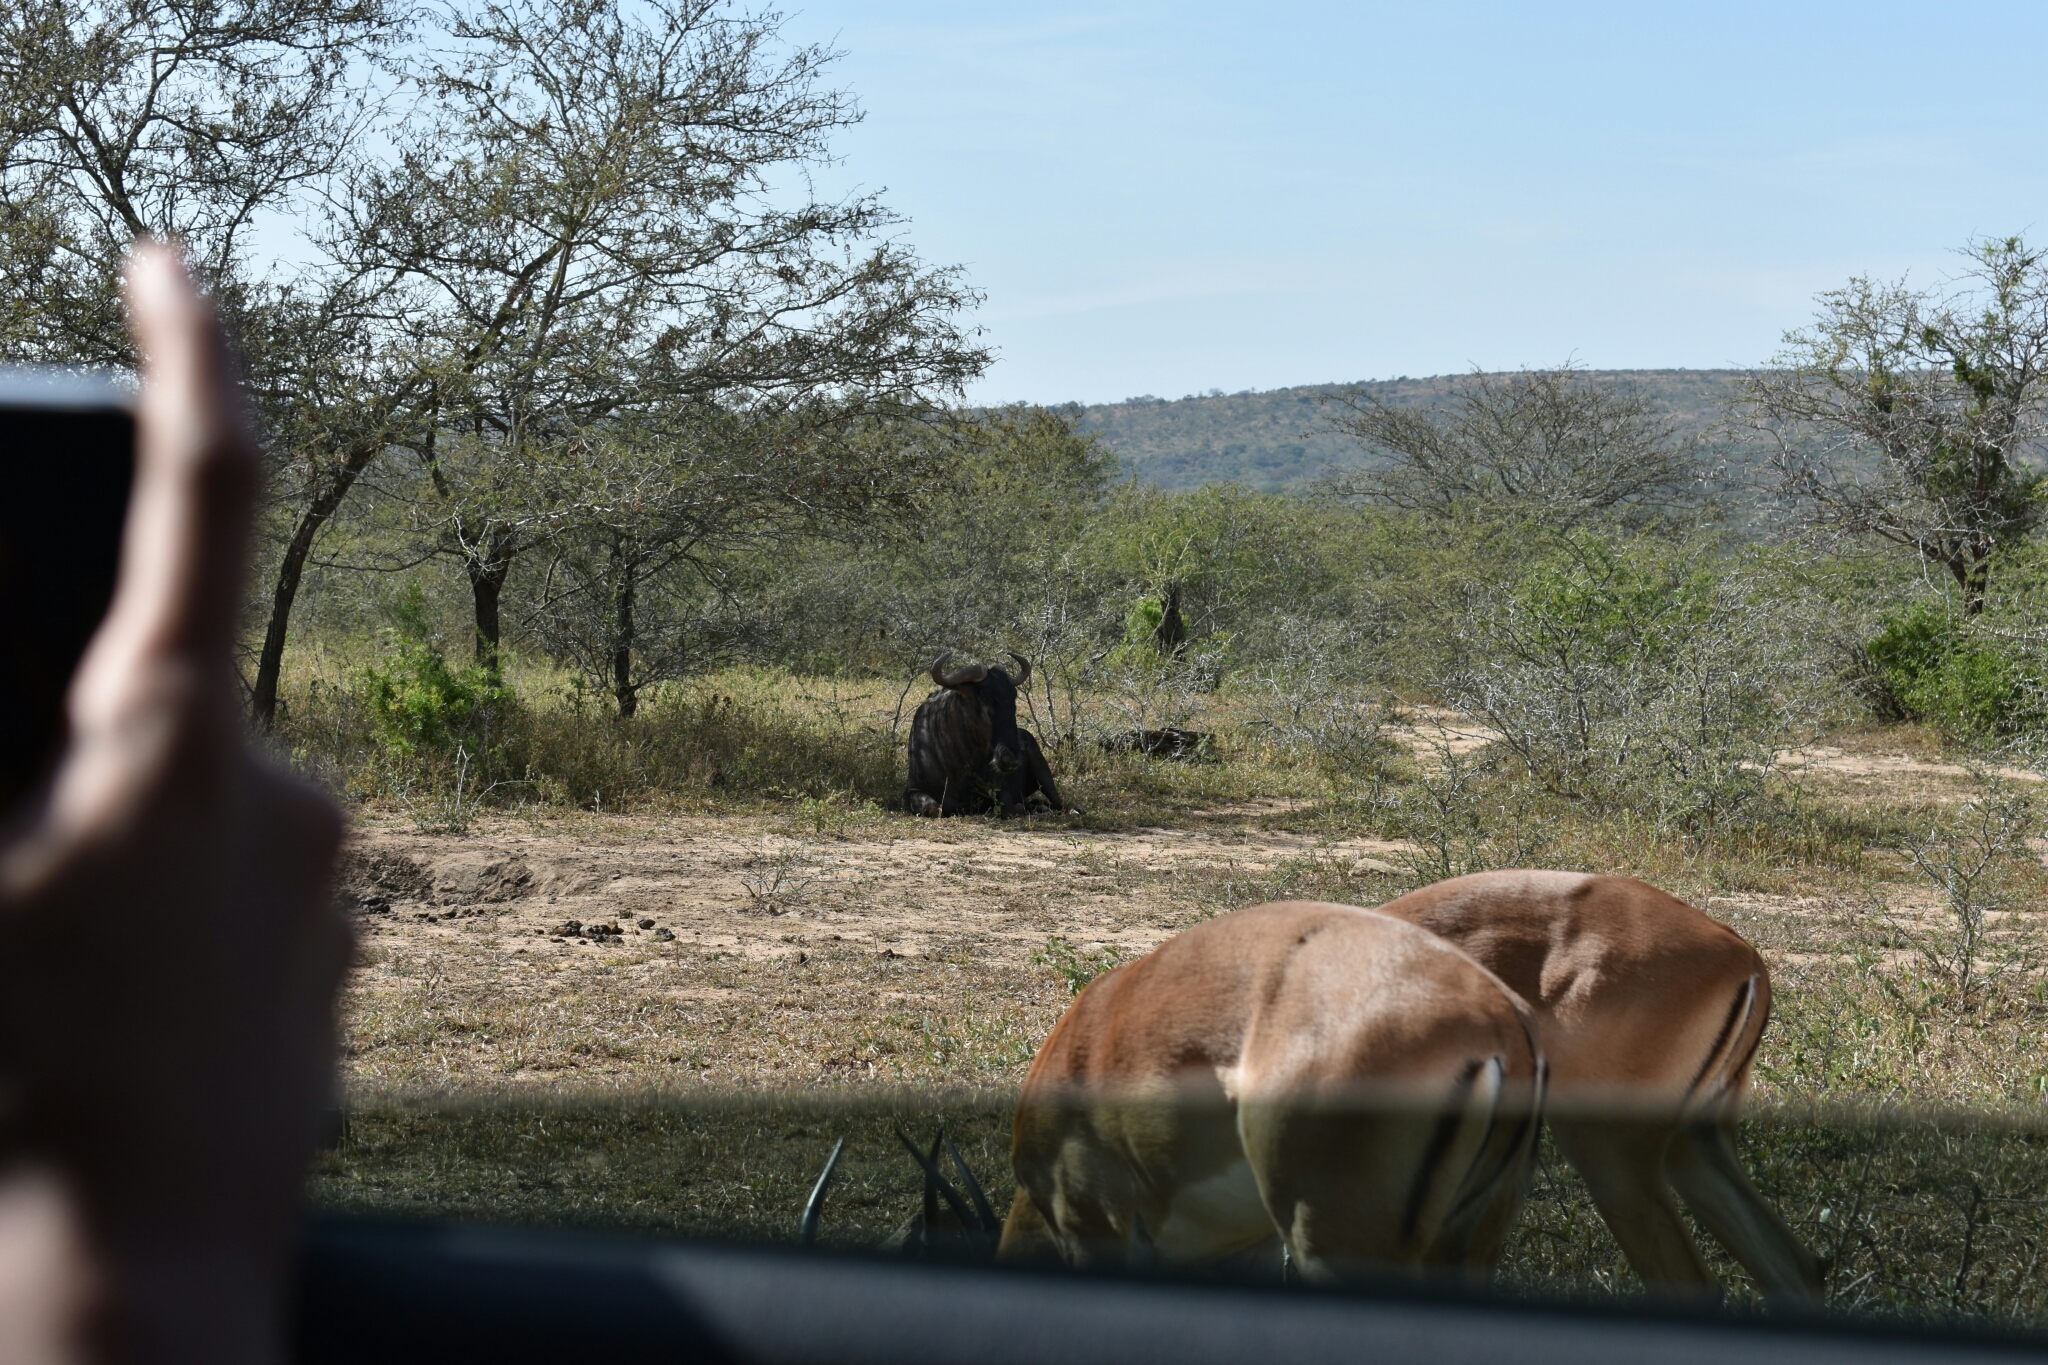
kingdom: Animalia
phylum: Chordata
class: Mammalia
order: Artiodactyla
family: Bovidae
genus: Connochaetes
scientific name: Connochaetes taurinus
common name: Blue wildebeest
